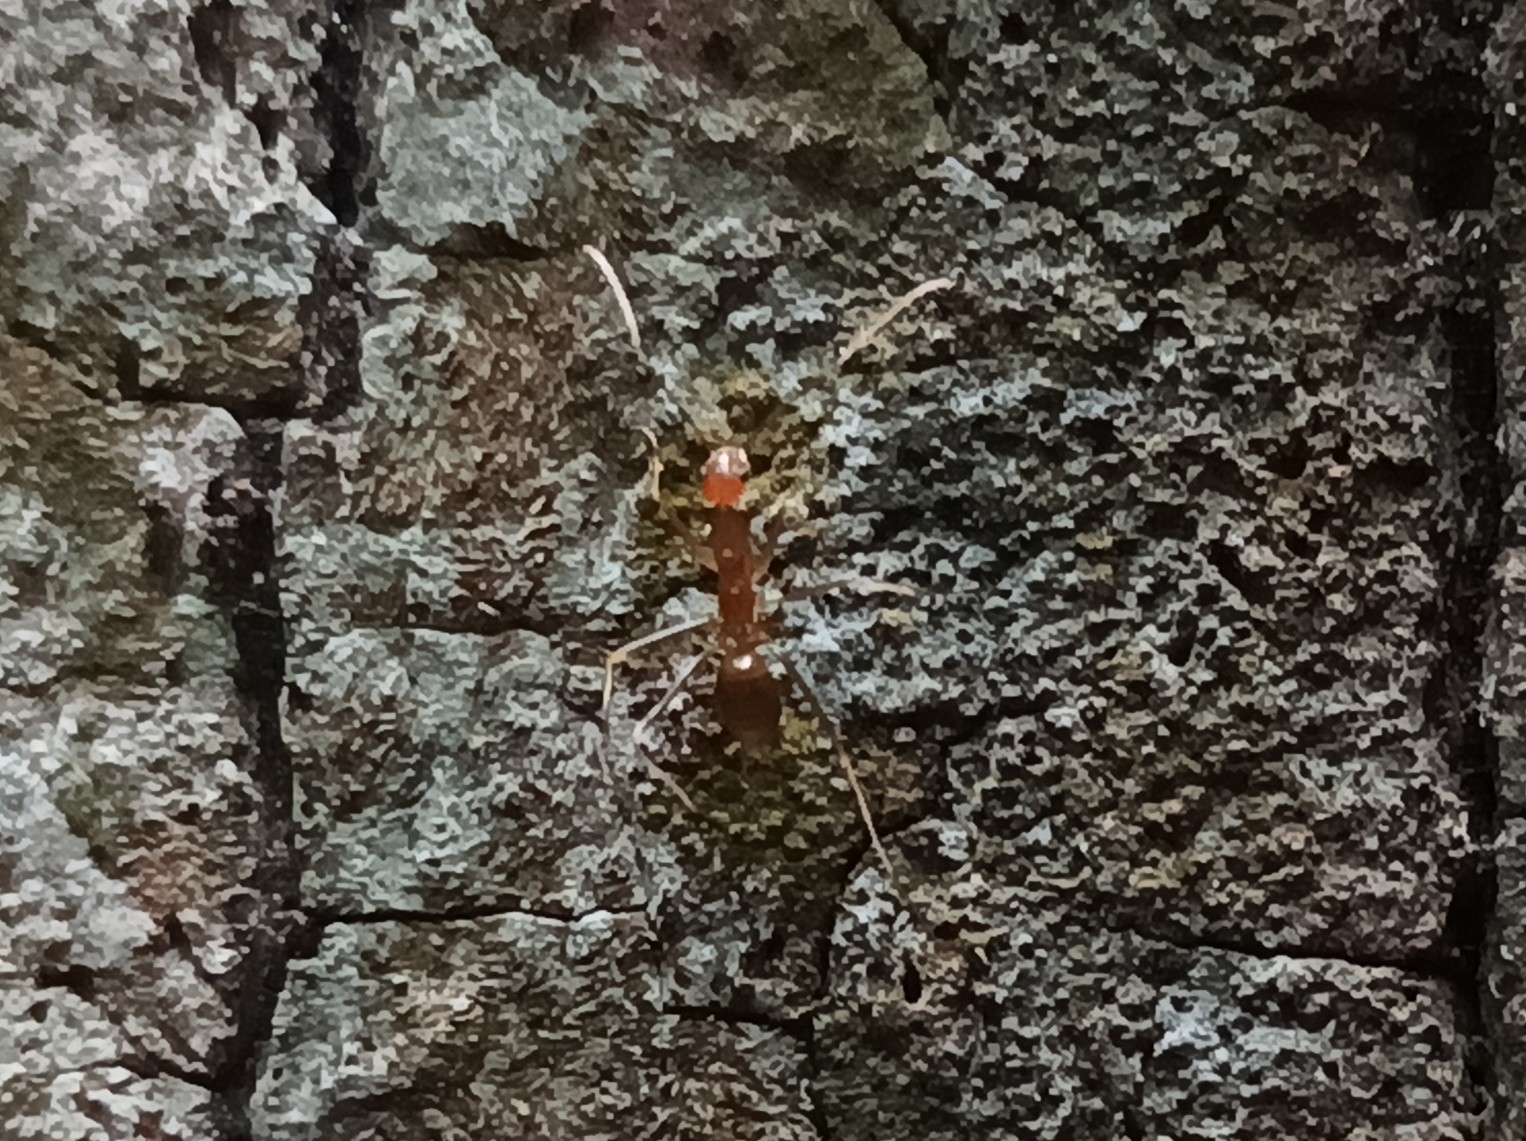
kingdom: Animalia
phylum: Arthropoda
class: Insecta
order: Hymenoptera
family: Formicidae
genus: Anoplolepis
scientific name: Anoplolepis gracilipes
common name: Ant
